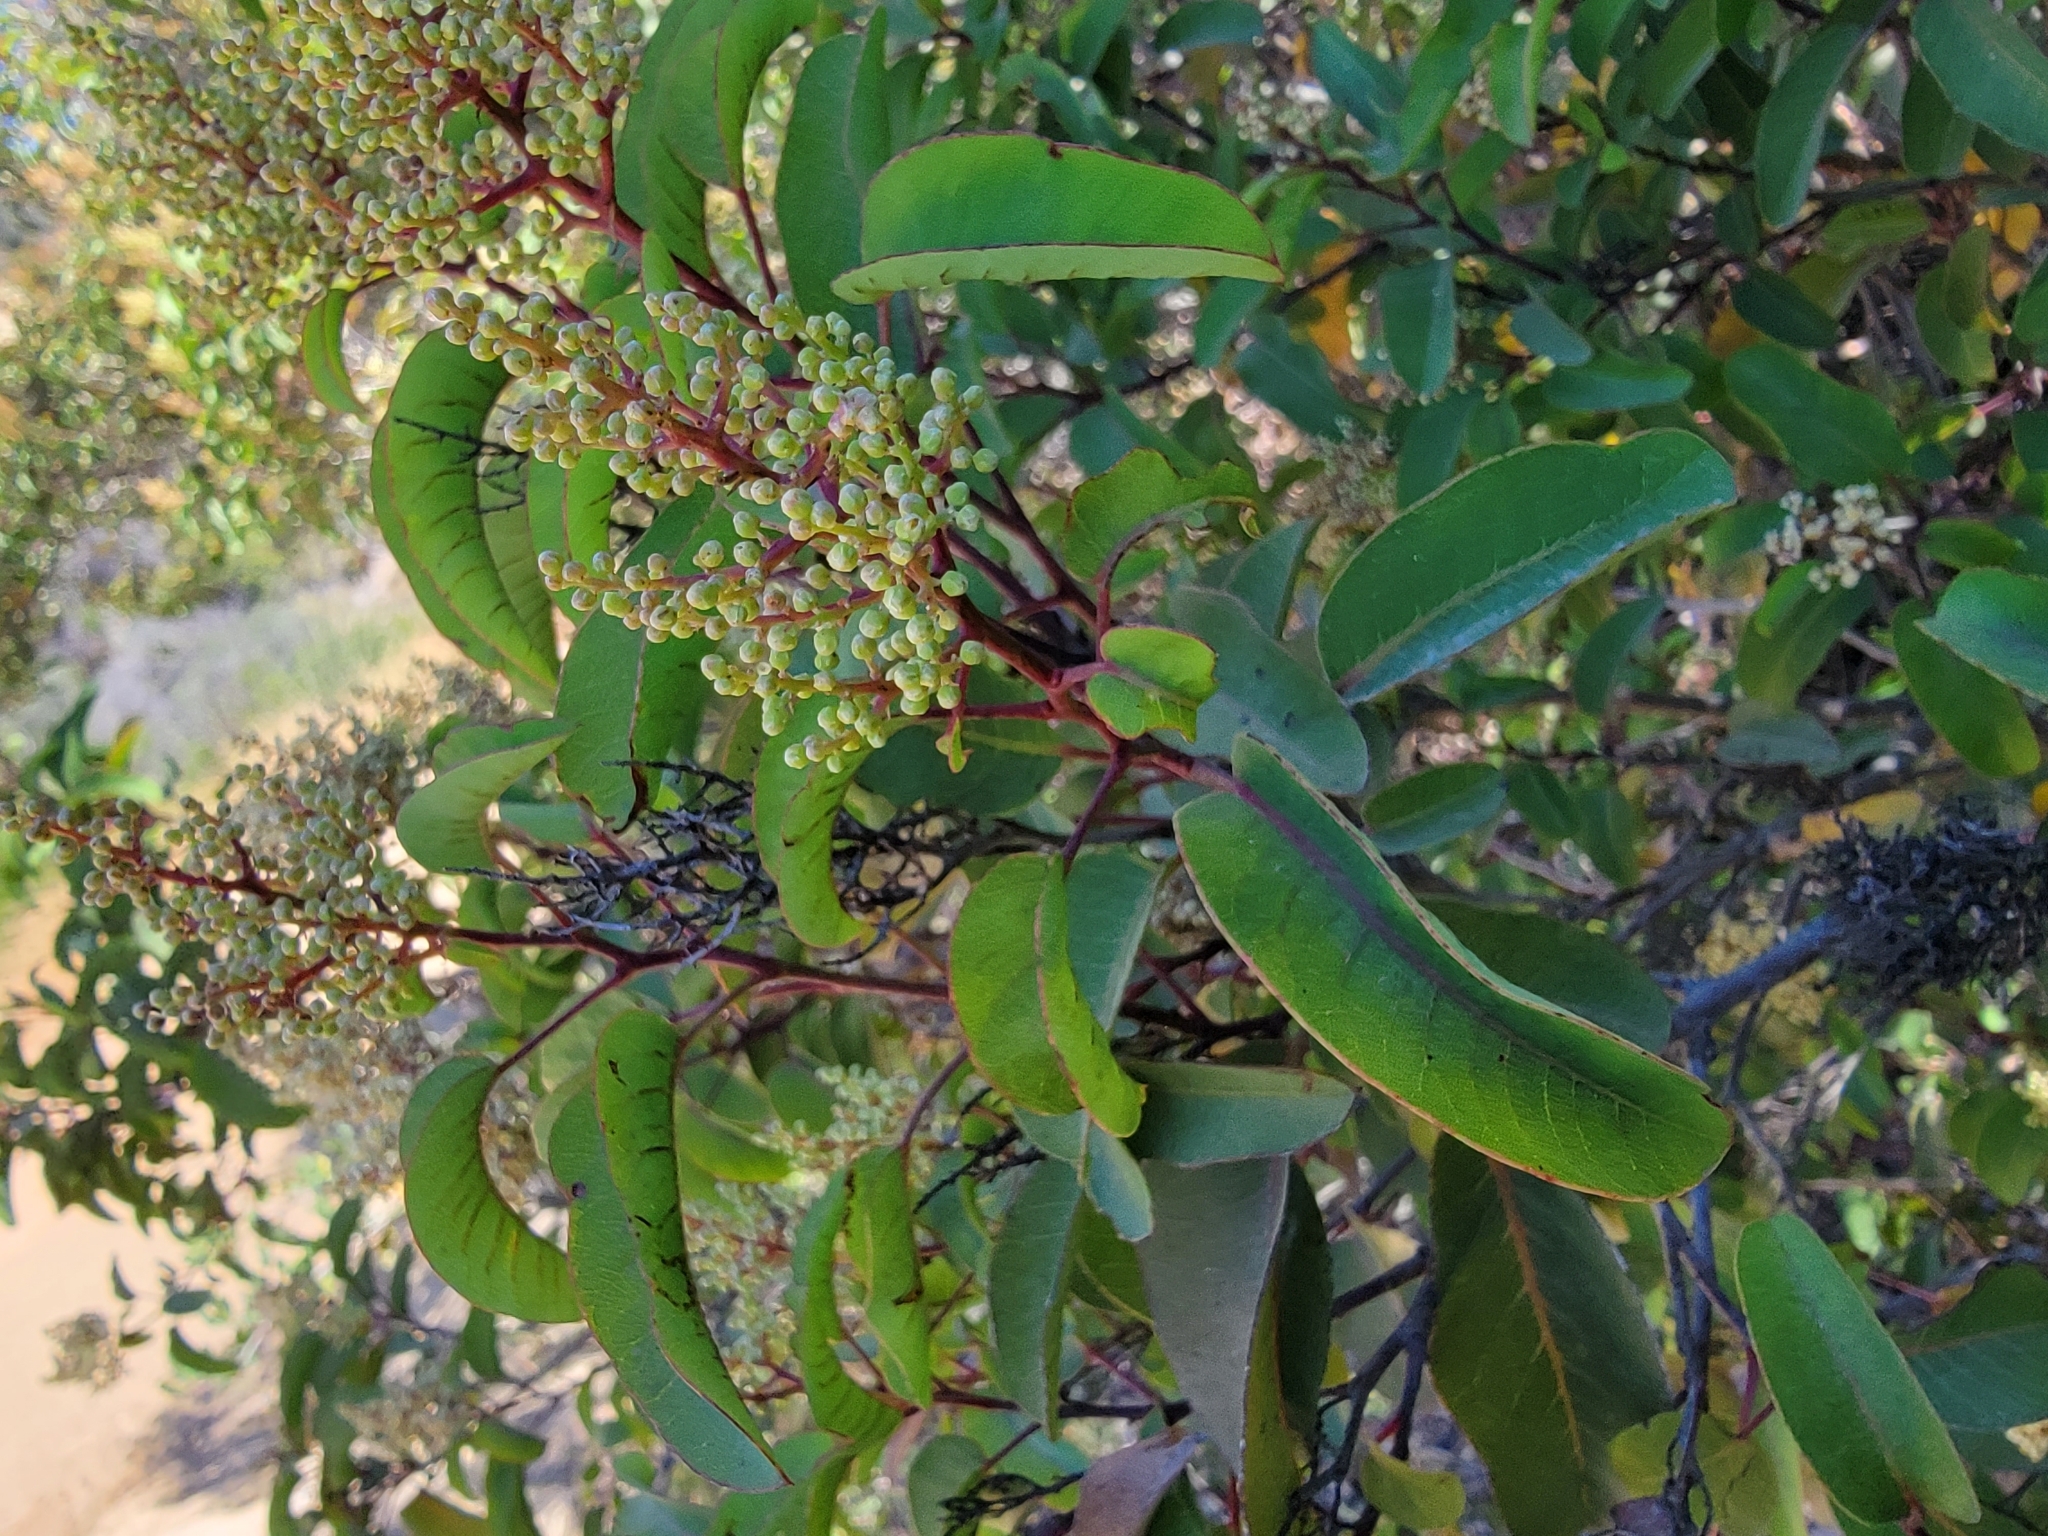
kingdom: Plantae
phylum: Tracheophyta
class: Magnoliopsida
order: Sapindales
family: Anacardiaceae
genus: Malosma
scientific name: Malosma laurina
